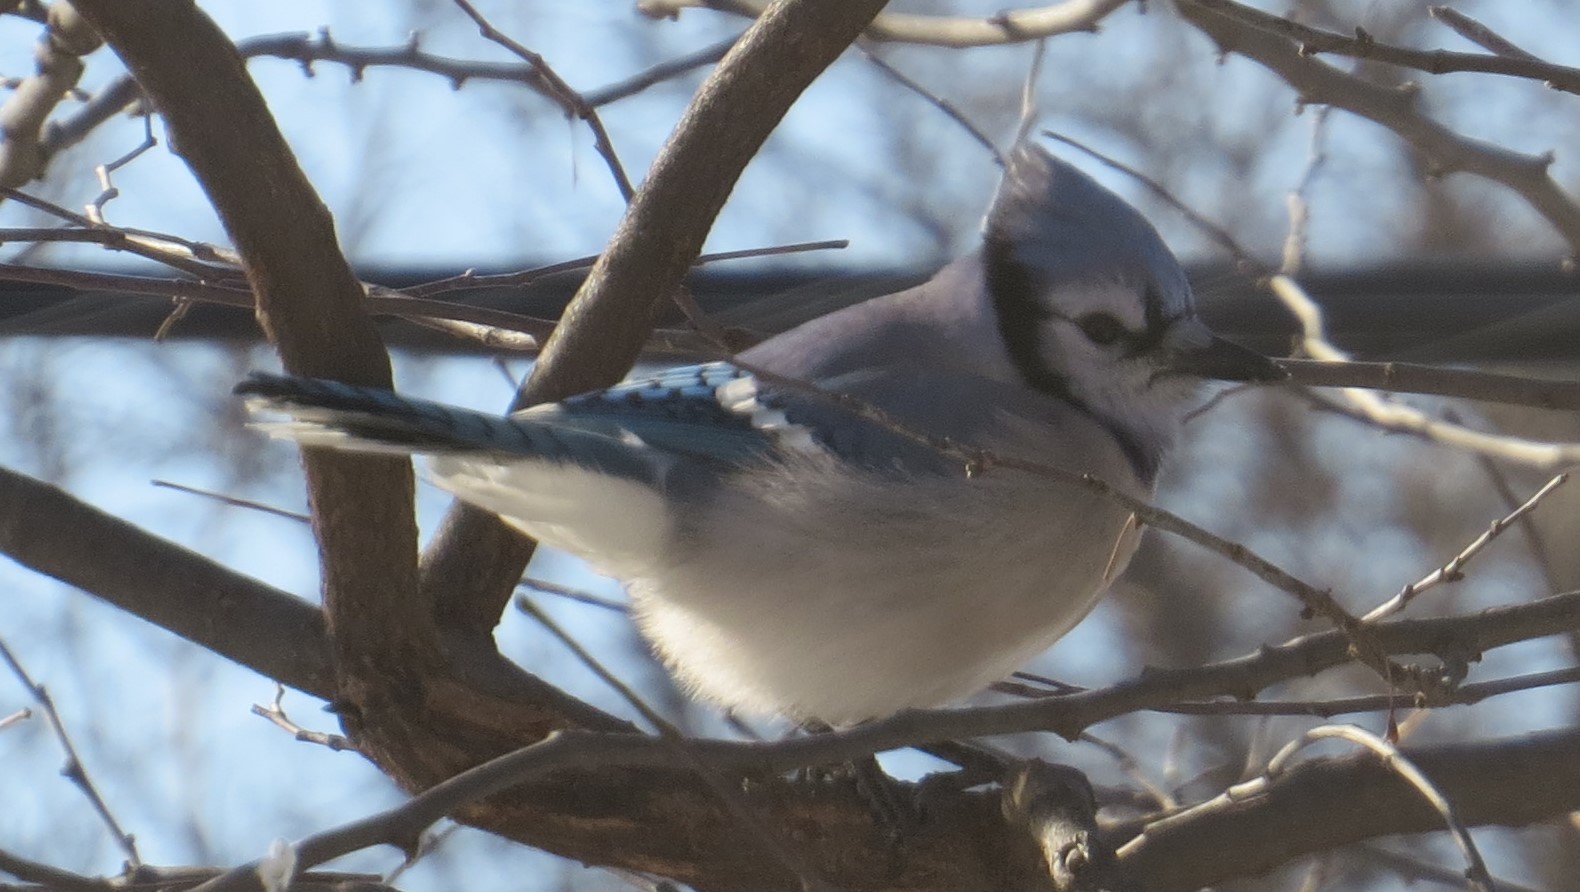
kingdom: Animalia
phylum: Chordata
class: Aves
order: Passeriformes
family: Corvidae
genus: Cyanocitta
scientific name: Cyanocitta cristata
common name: Blue jay
